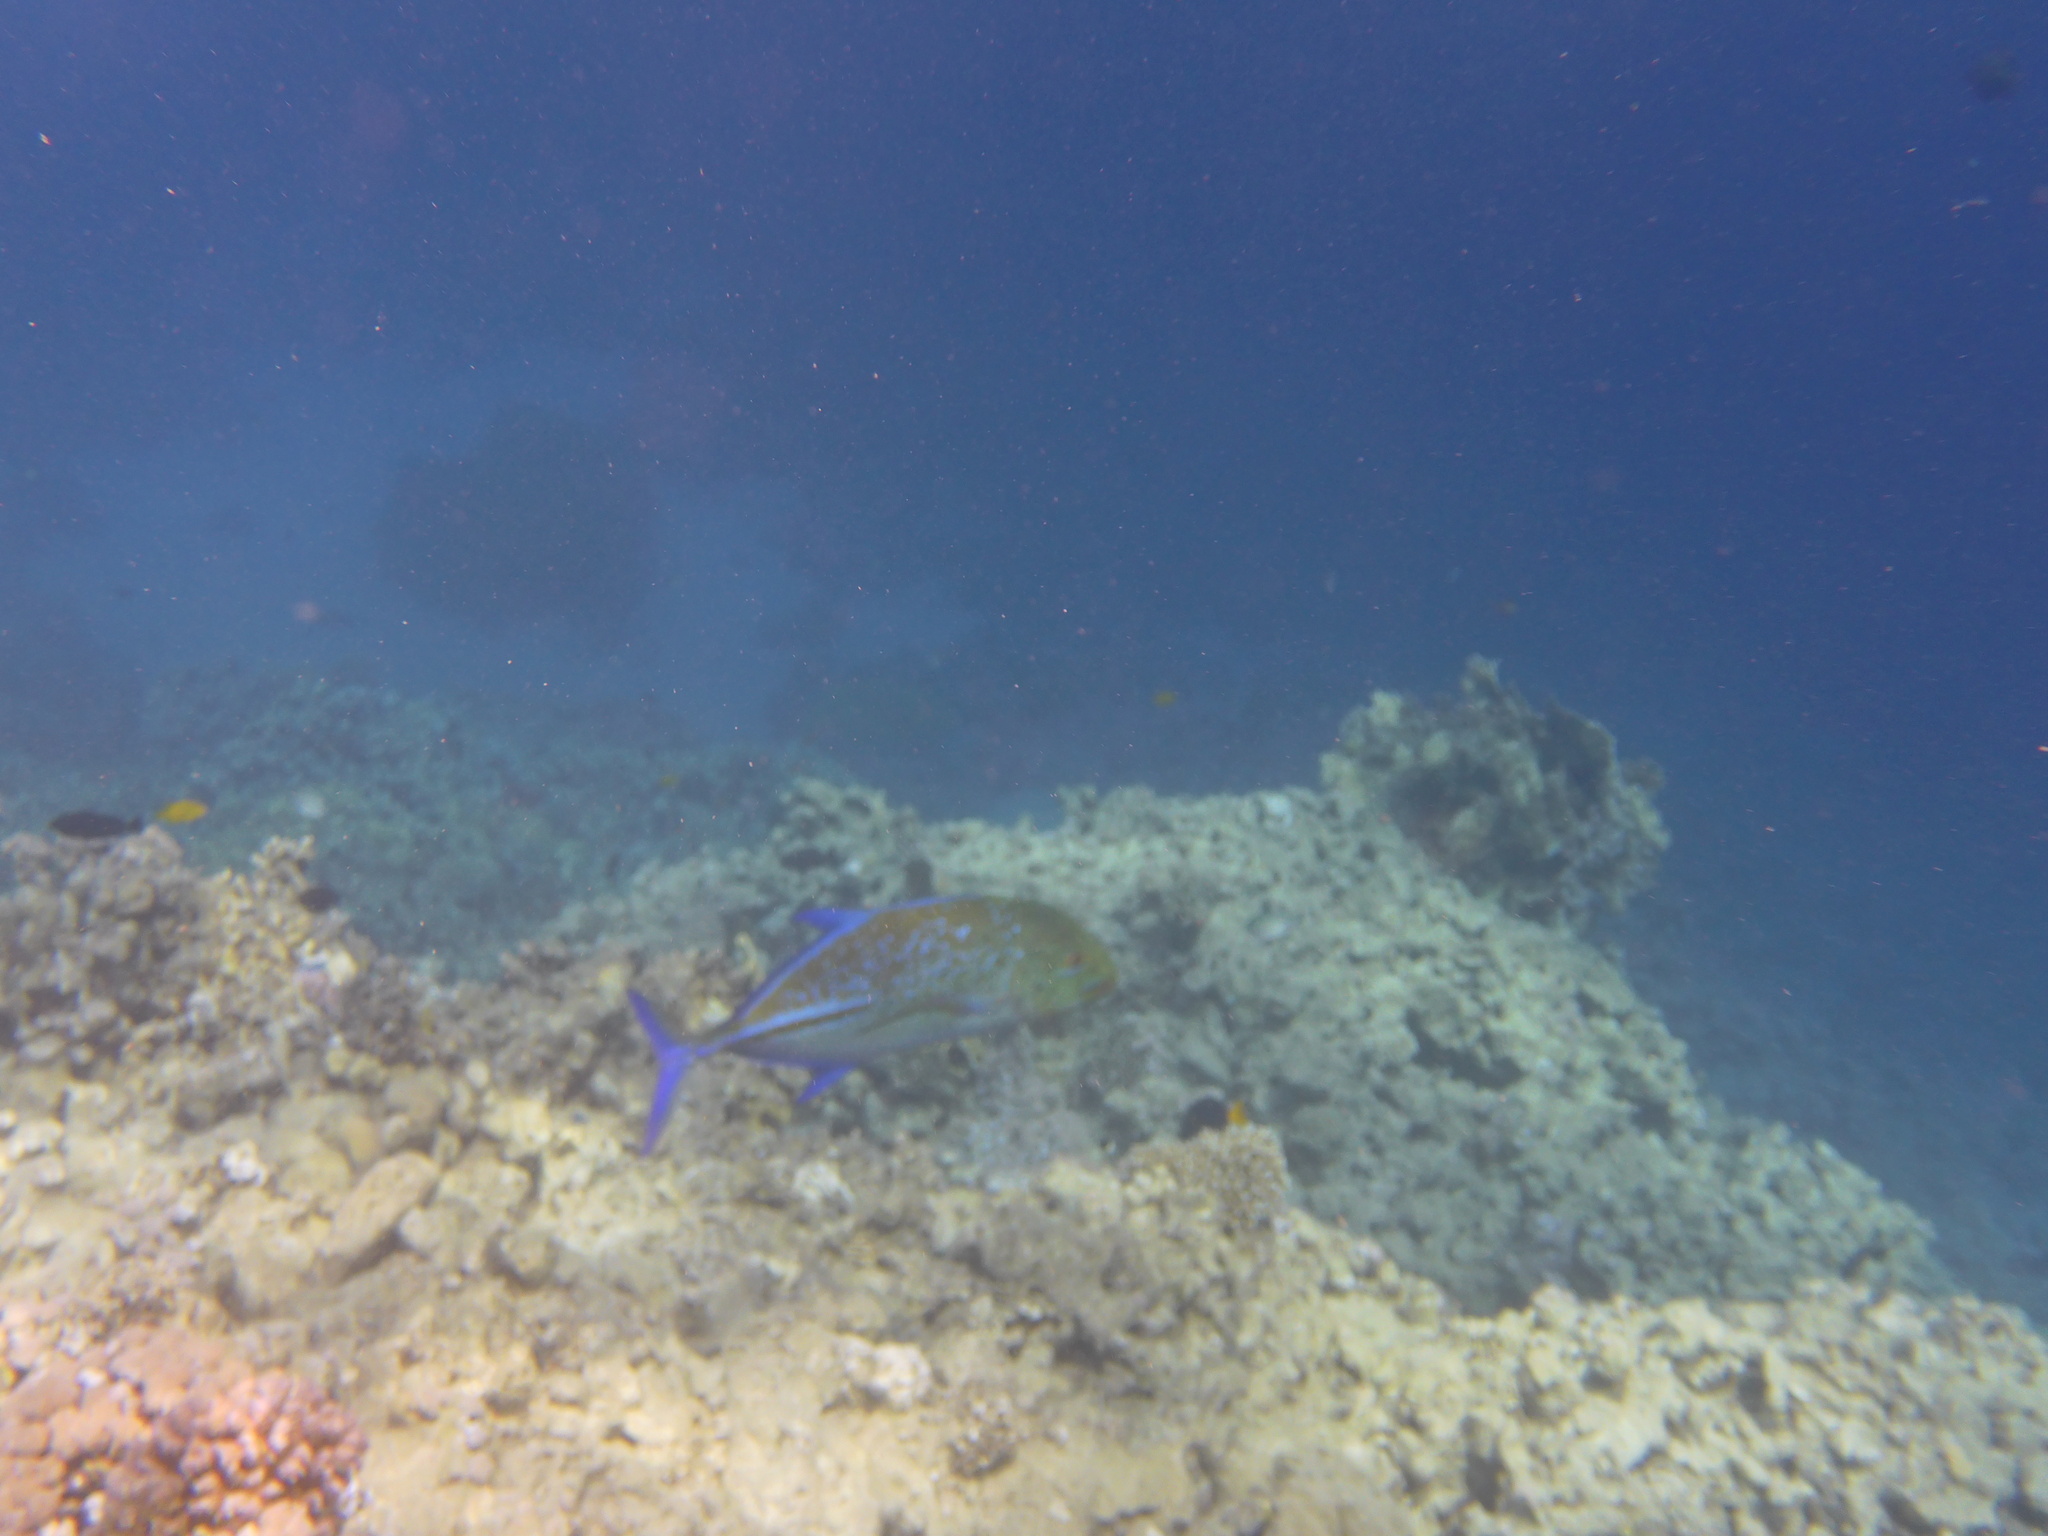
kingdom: Animalia
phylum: Chordata
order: Perciformes
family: Carangidae
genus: Caranx
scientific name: Caranx melampygus
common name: Bluefin trevally
